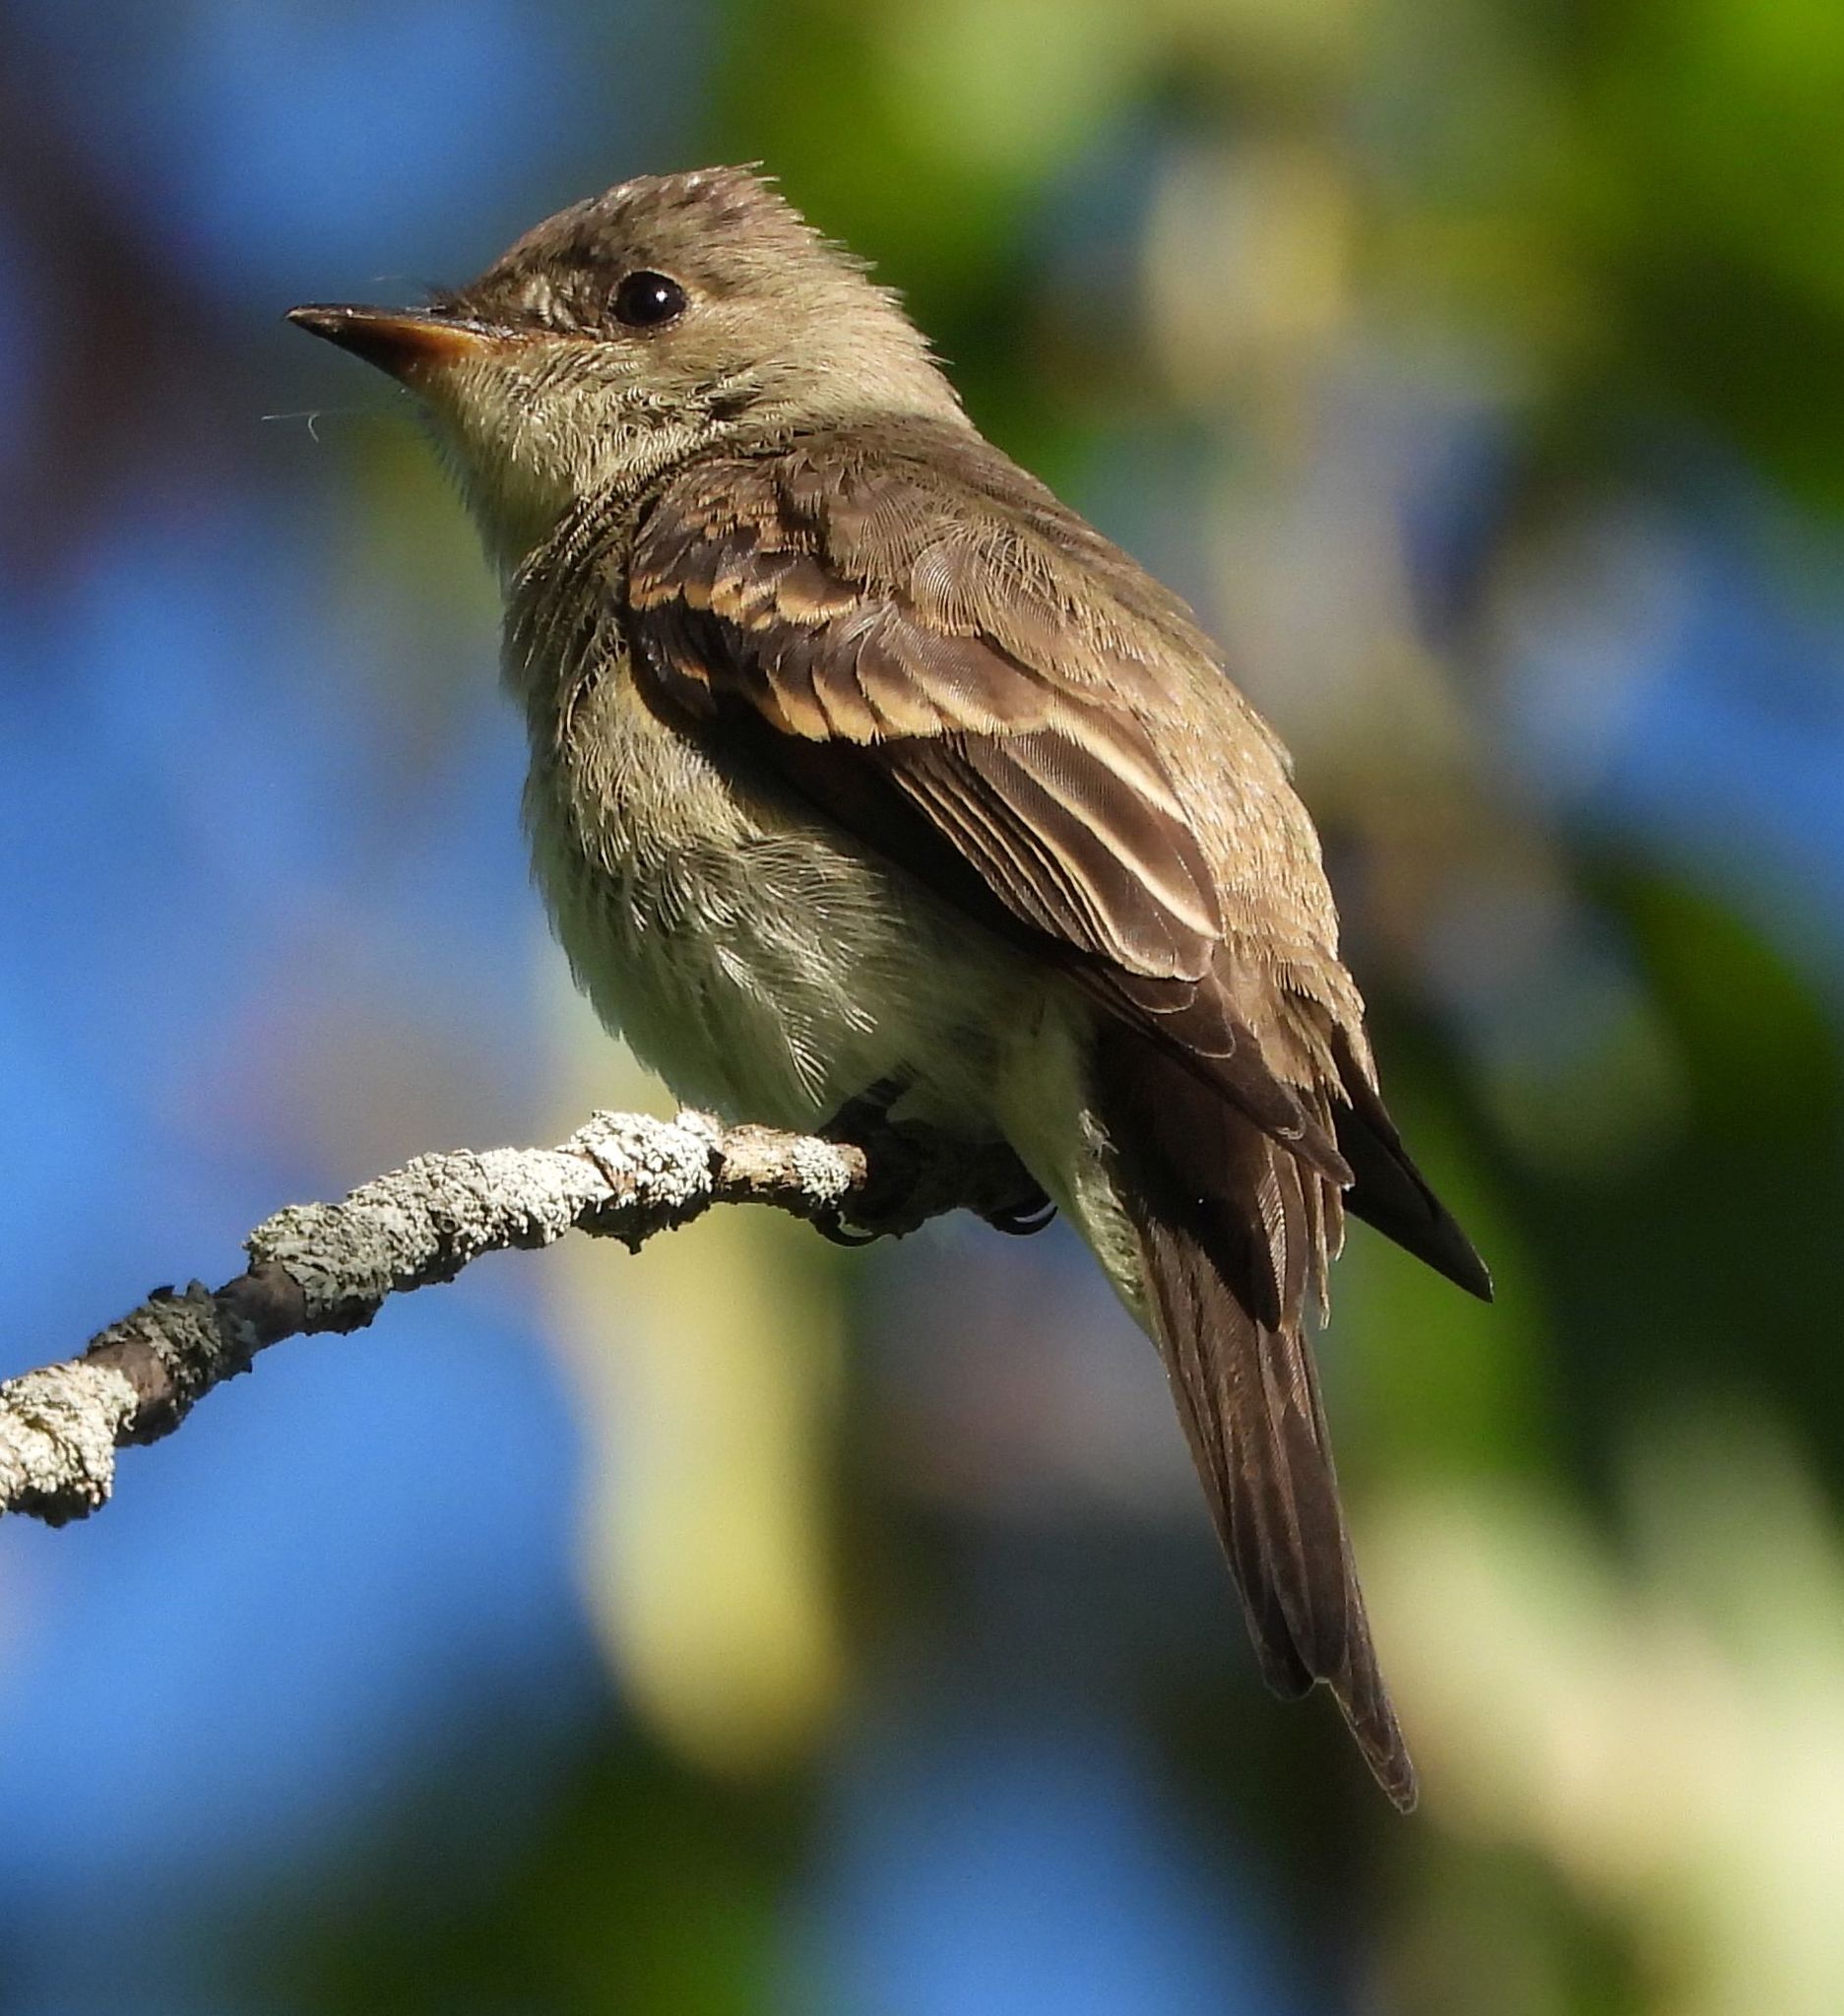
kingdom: Animalia
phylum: Chordata
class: Aves
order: Passeriformes
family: Tyrannidae
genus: Contopus
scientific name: Contopus virens
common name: Eastern wood-pewee
